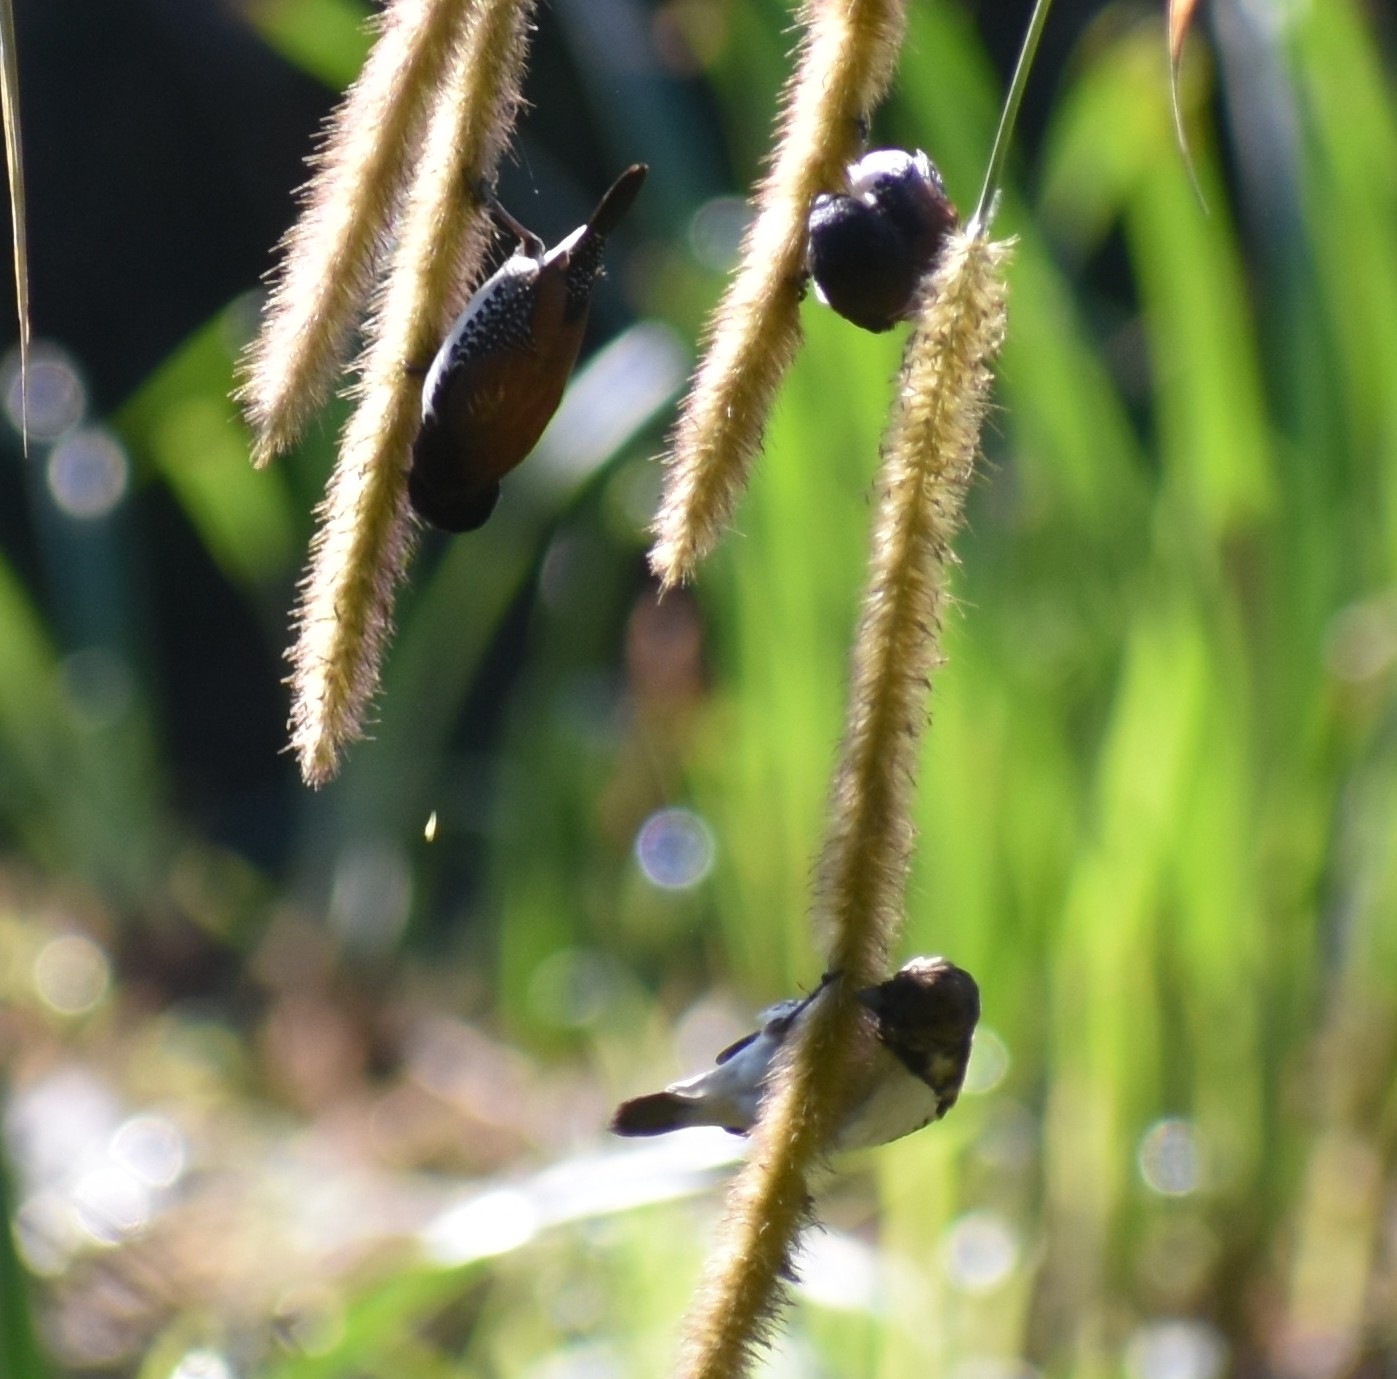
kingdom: Animalia
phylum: Chordata
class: Aves
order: Passeriformes
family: Estrildidae
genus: Lonchura
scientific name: Lonchura nigriceps
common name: Red-backed mannikin
